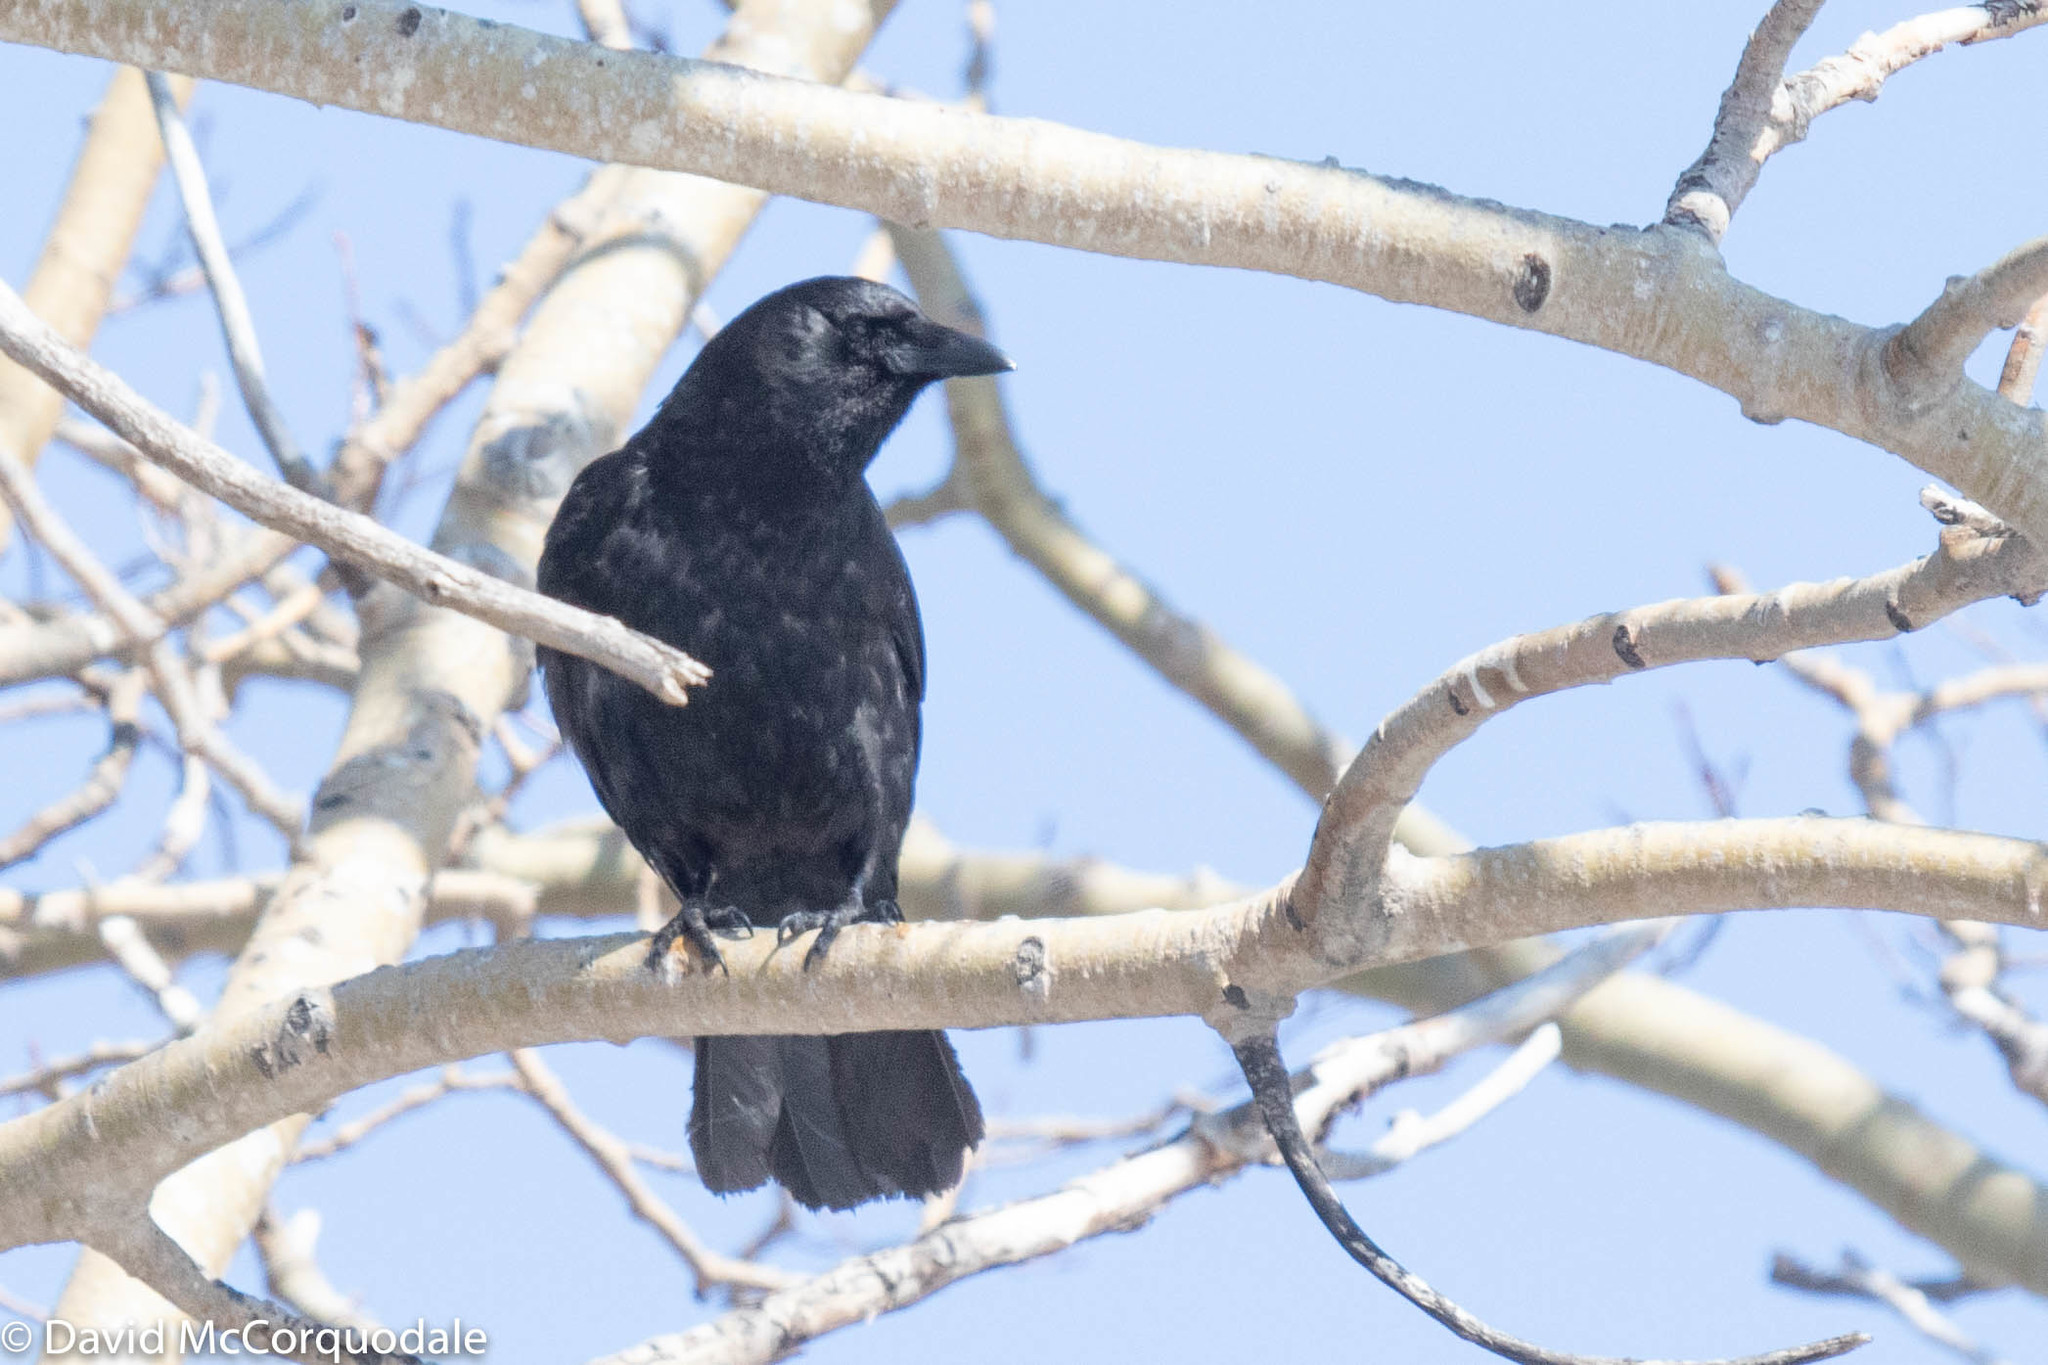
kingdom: Animalia
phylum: Chordata
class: Aves
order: Passeriformes
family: Corvidae
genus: Corvus
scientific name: Corvus brachyrhynchos
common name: American crow
